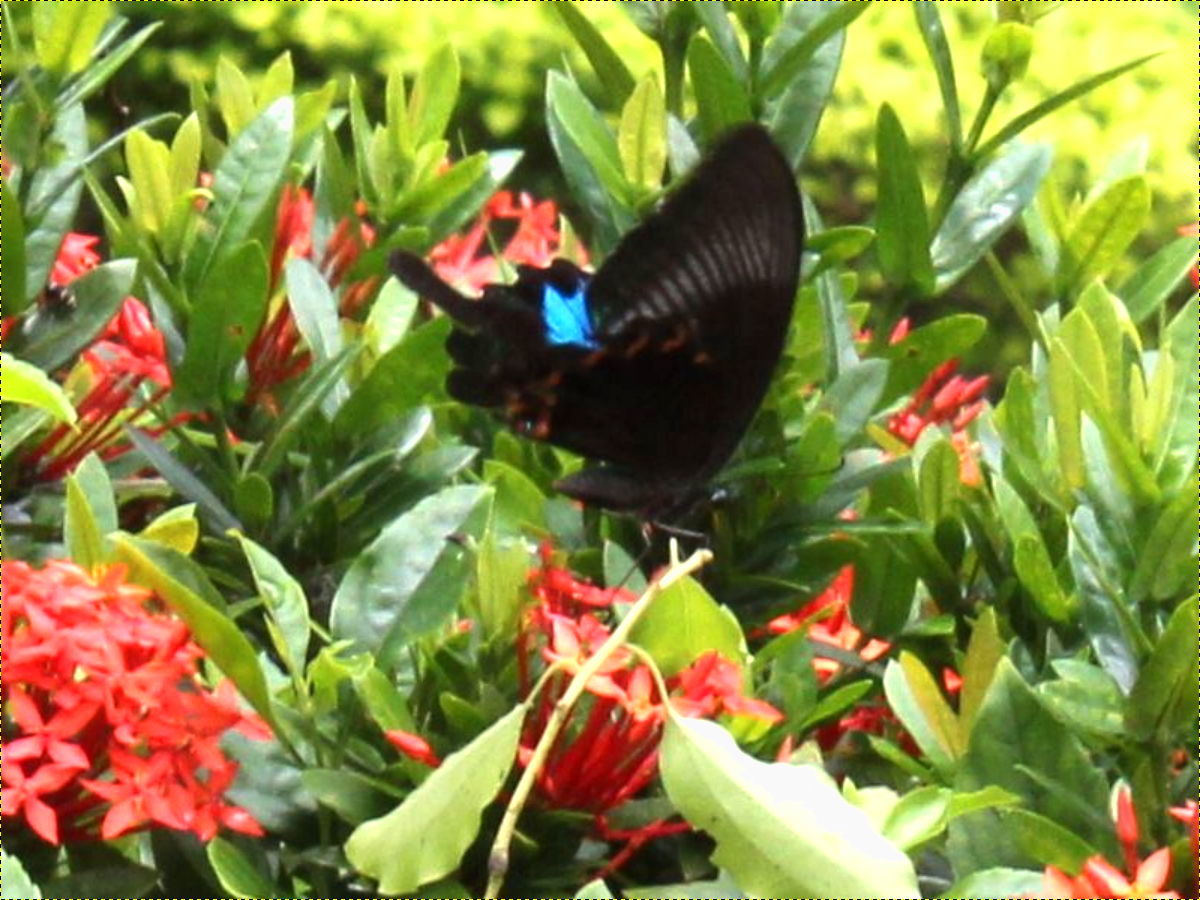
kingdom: Animalia
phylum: Arthropoda
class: Insecta
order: Lepidoptera
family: Papilionidae
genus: Papilio
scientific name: Papilio paris
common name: Paris peacock
